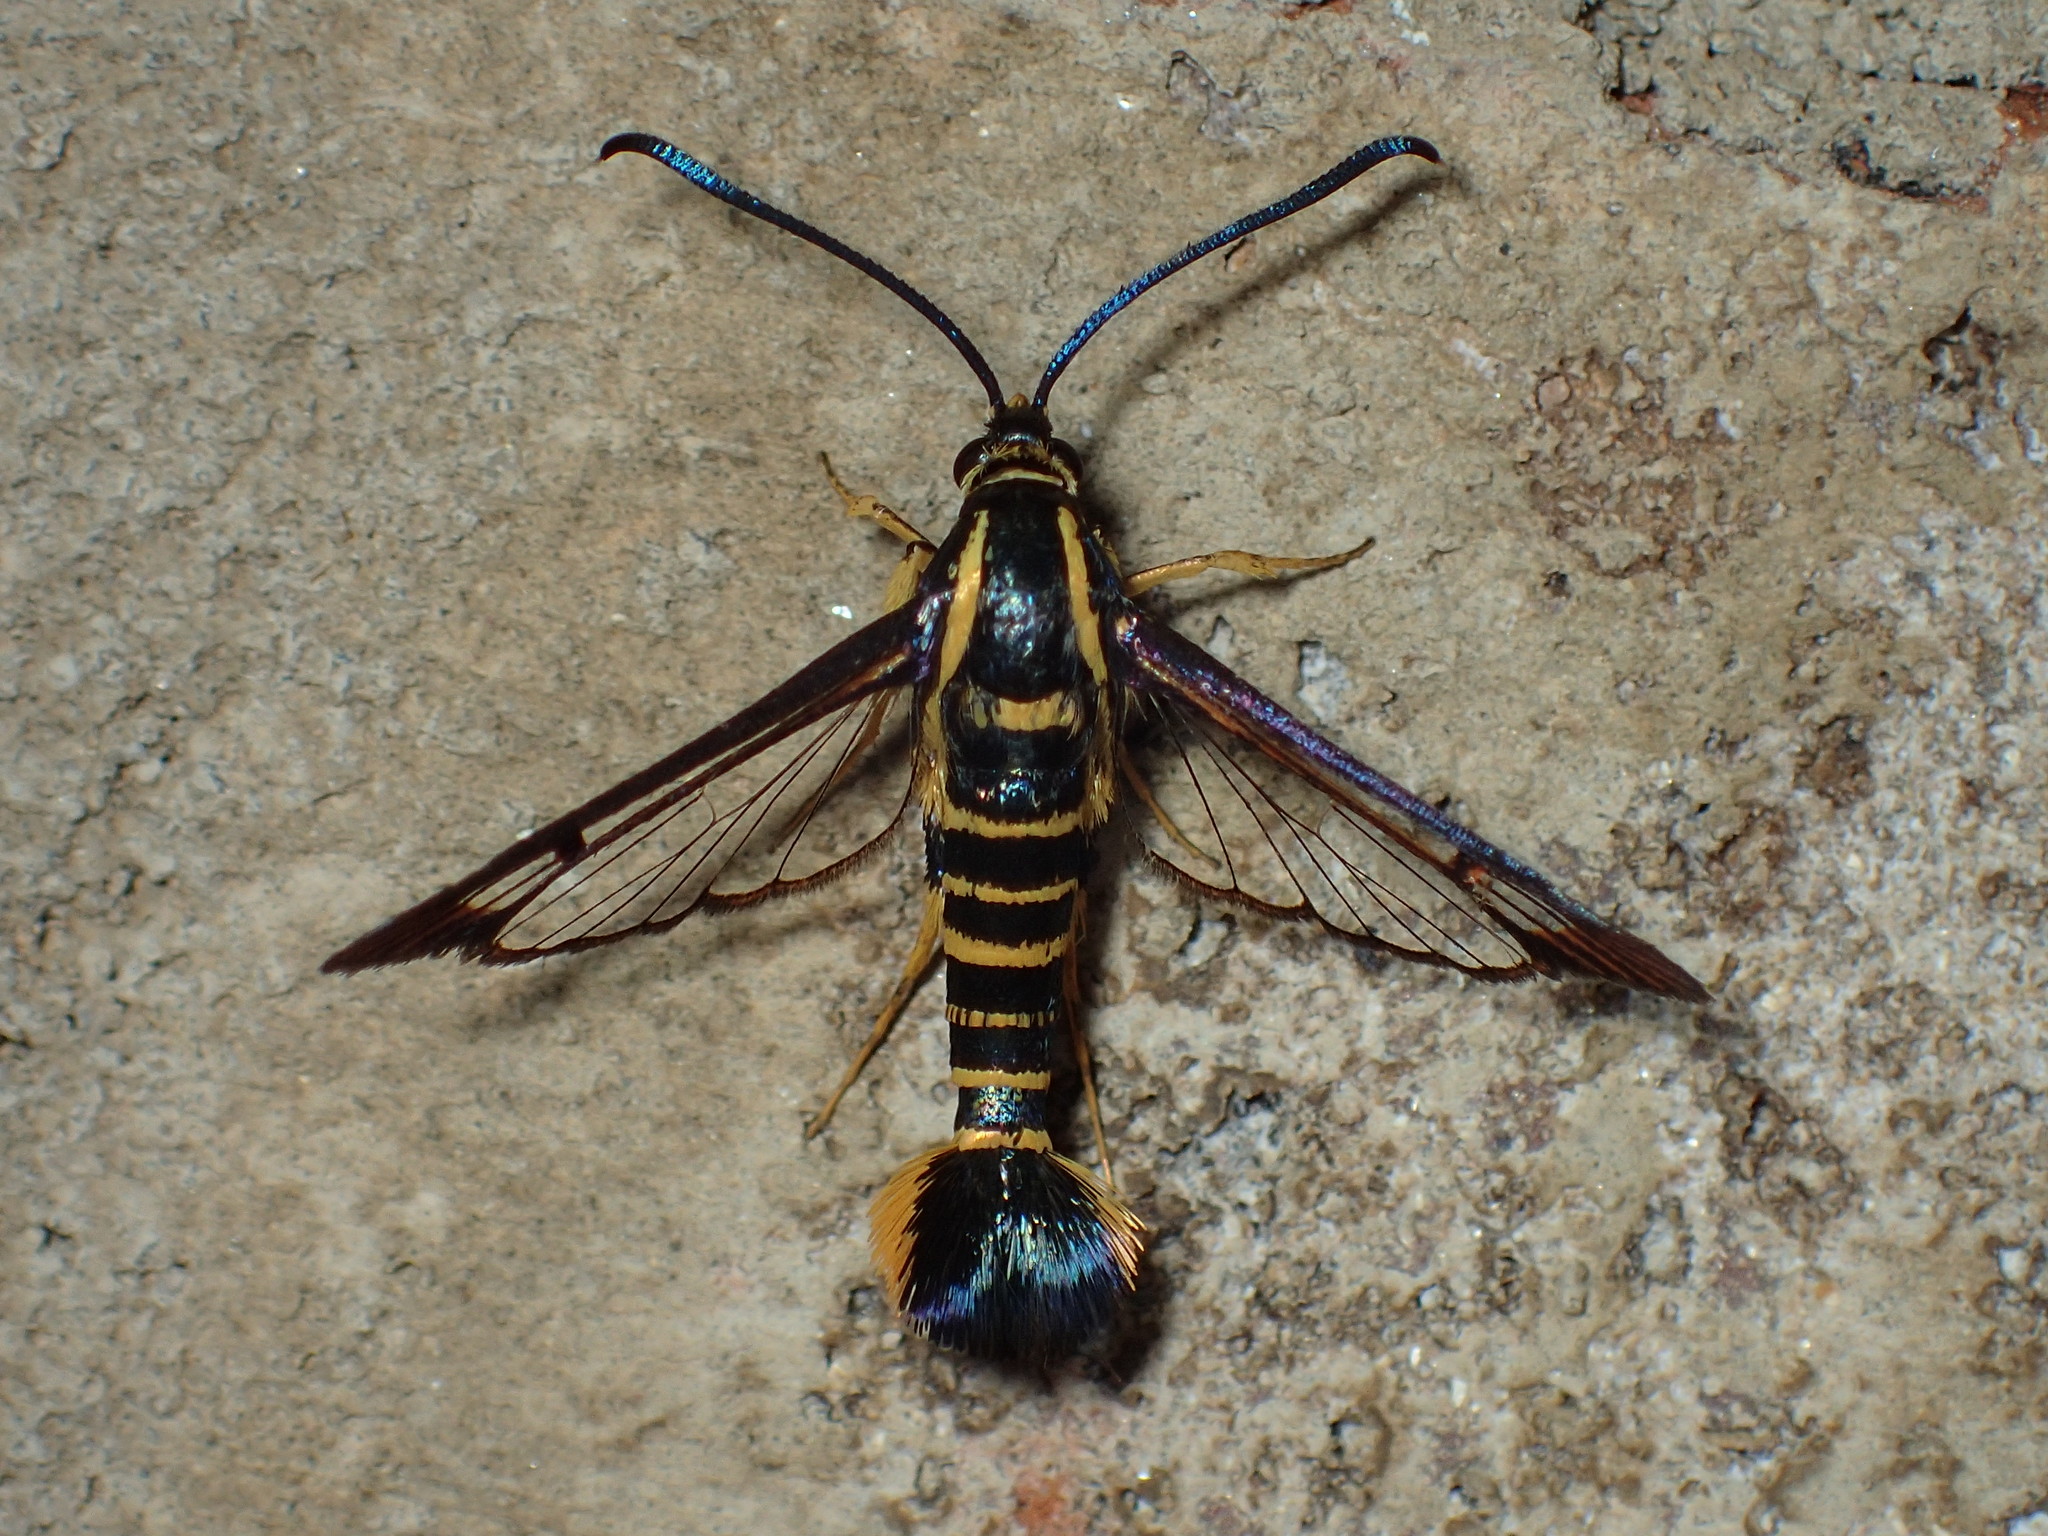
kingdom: Animalia
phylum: Arthropoda
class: Insecta
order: Lepidoptera
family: Sesiidae
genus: Synanthedon
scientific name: Synanthedon arkansasensis
